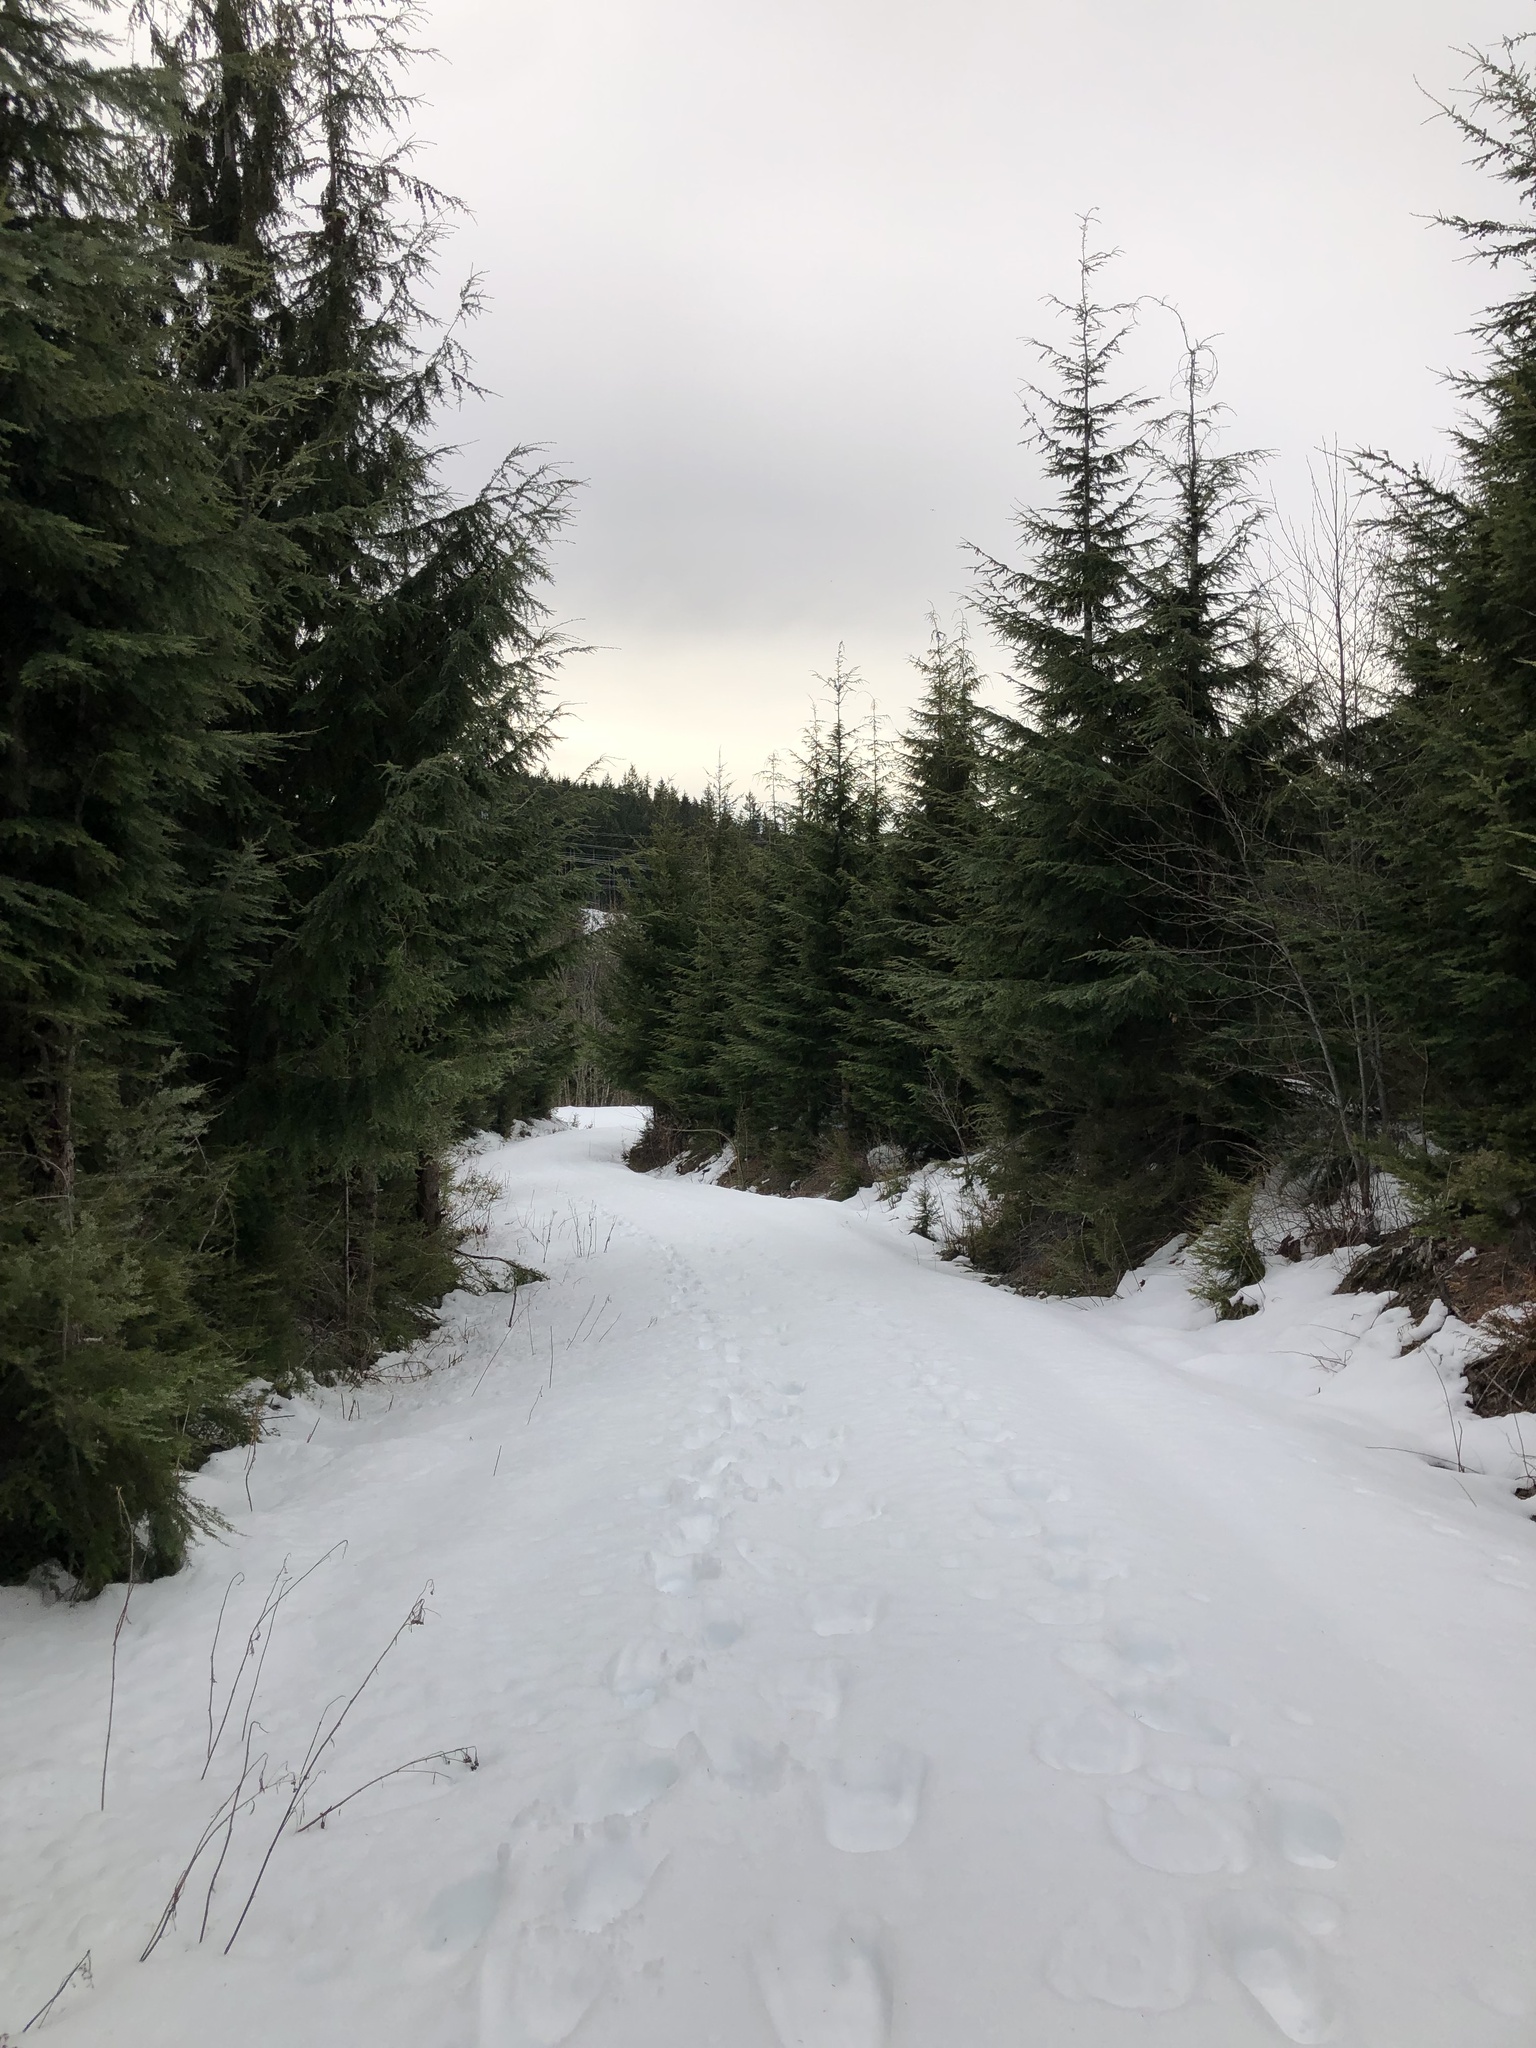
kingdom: Plantae
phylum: Tracheophyta
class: Pinopsida
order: Pinales
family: Pinaceae
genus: Tsuga
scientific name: Tsuga heterophylla
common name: Western hemlock
